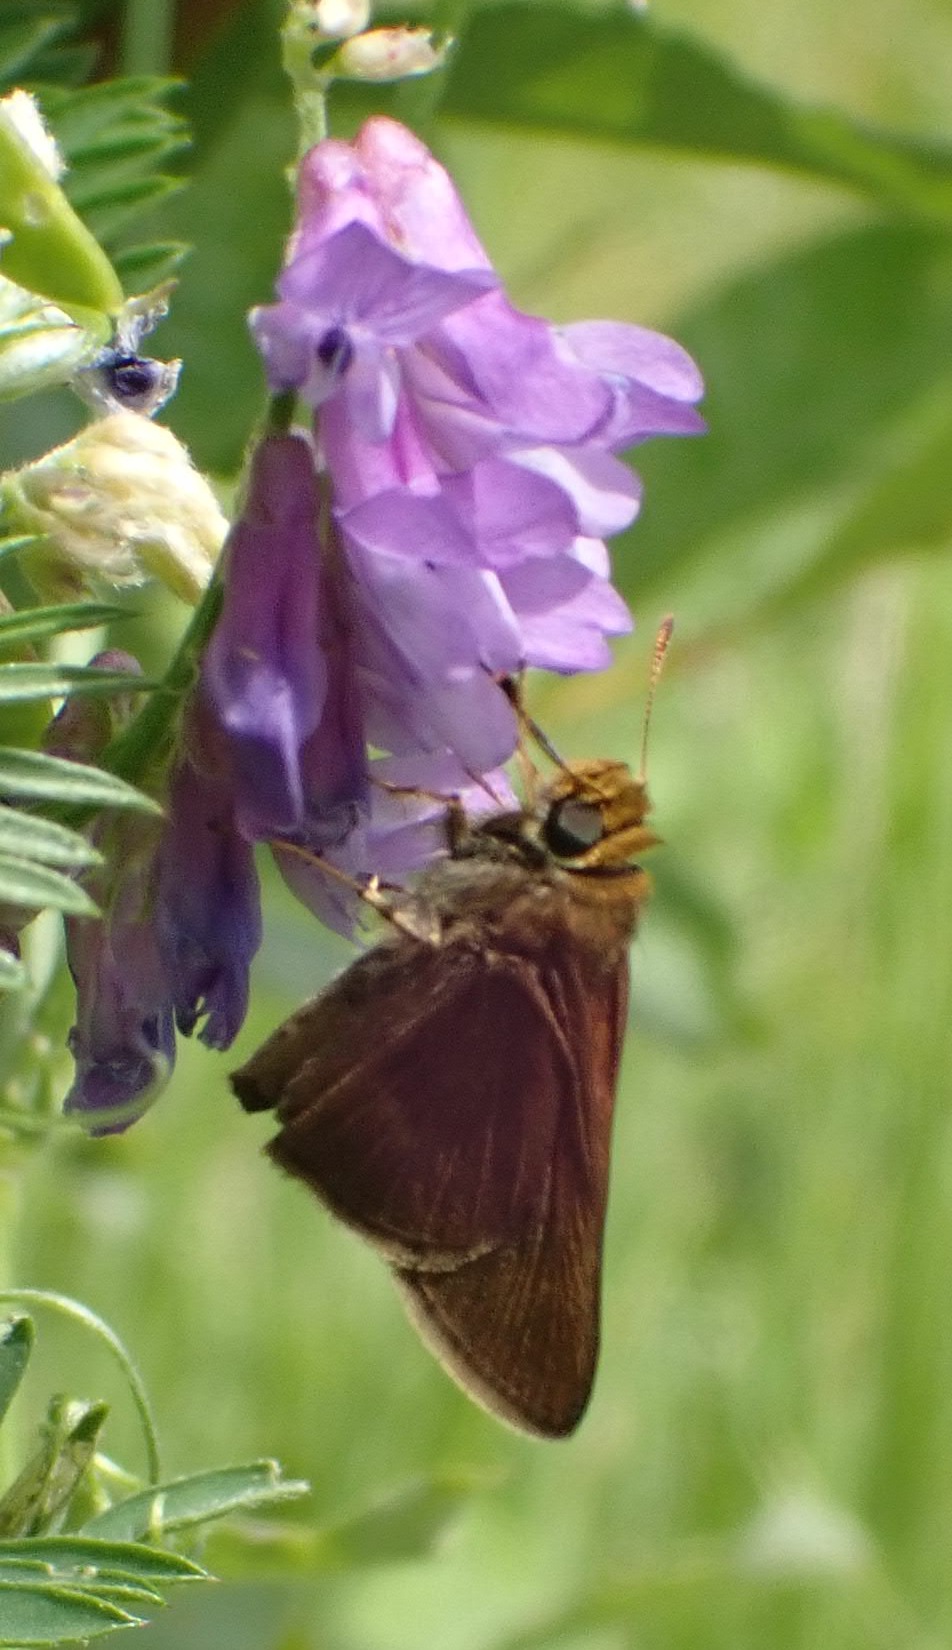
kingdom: Animalia
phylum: Arthropoda
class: Insecta
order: Lepidoptera
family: Hesperiidae
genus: Euphyes
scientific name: Euphyes vestris
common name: Dun skipper
